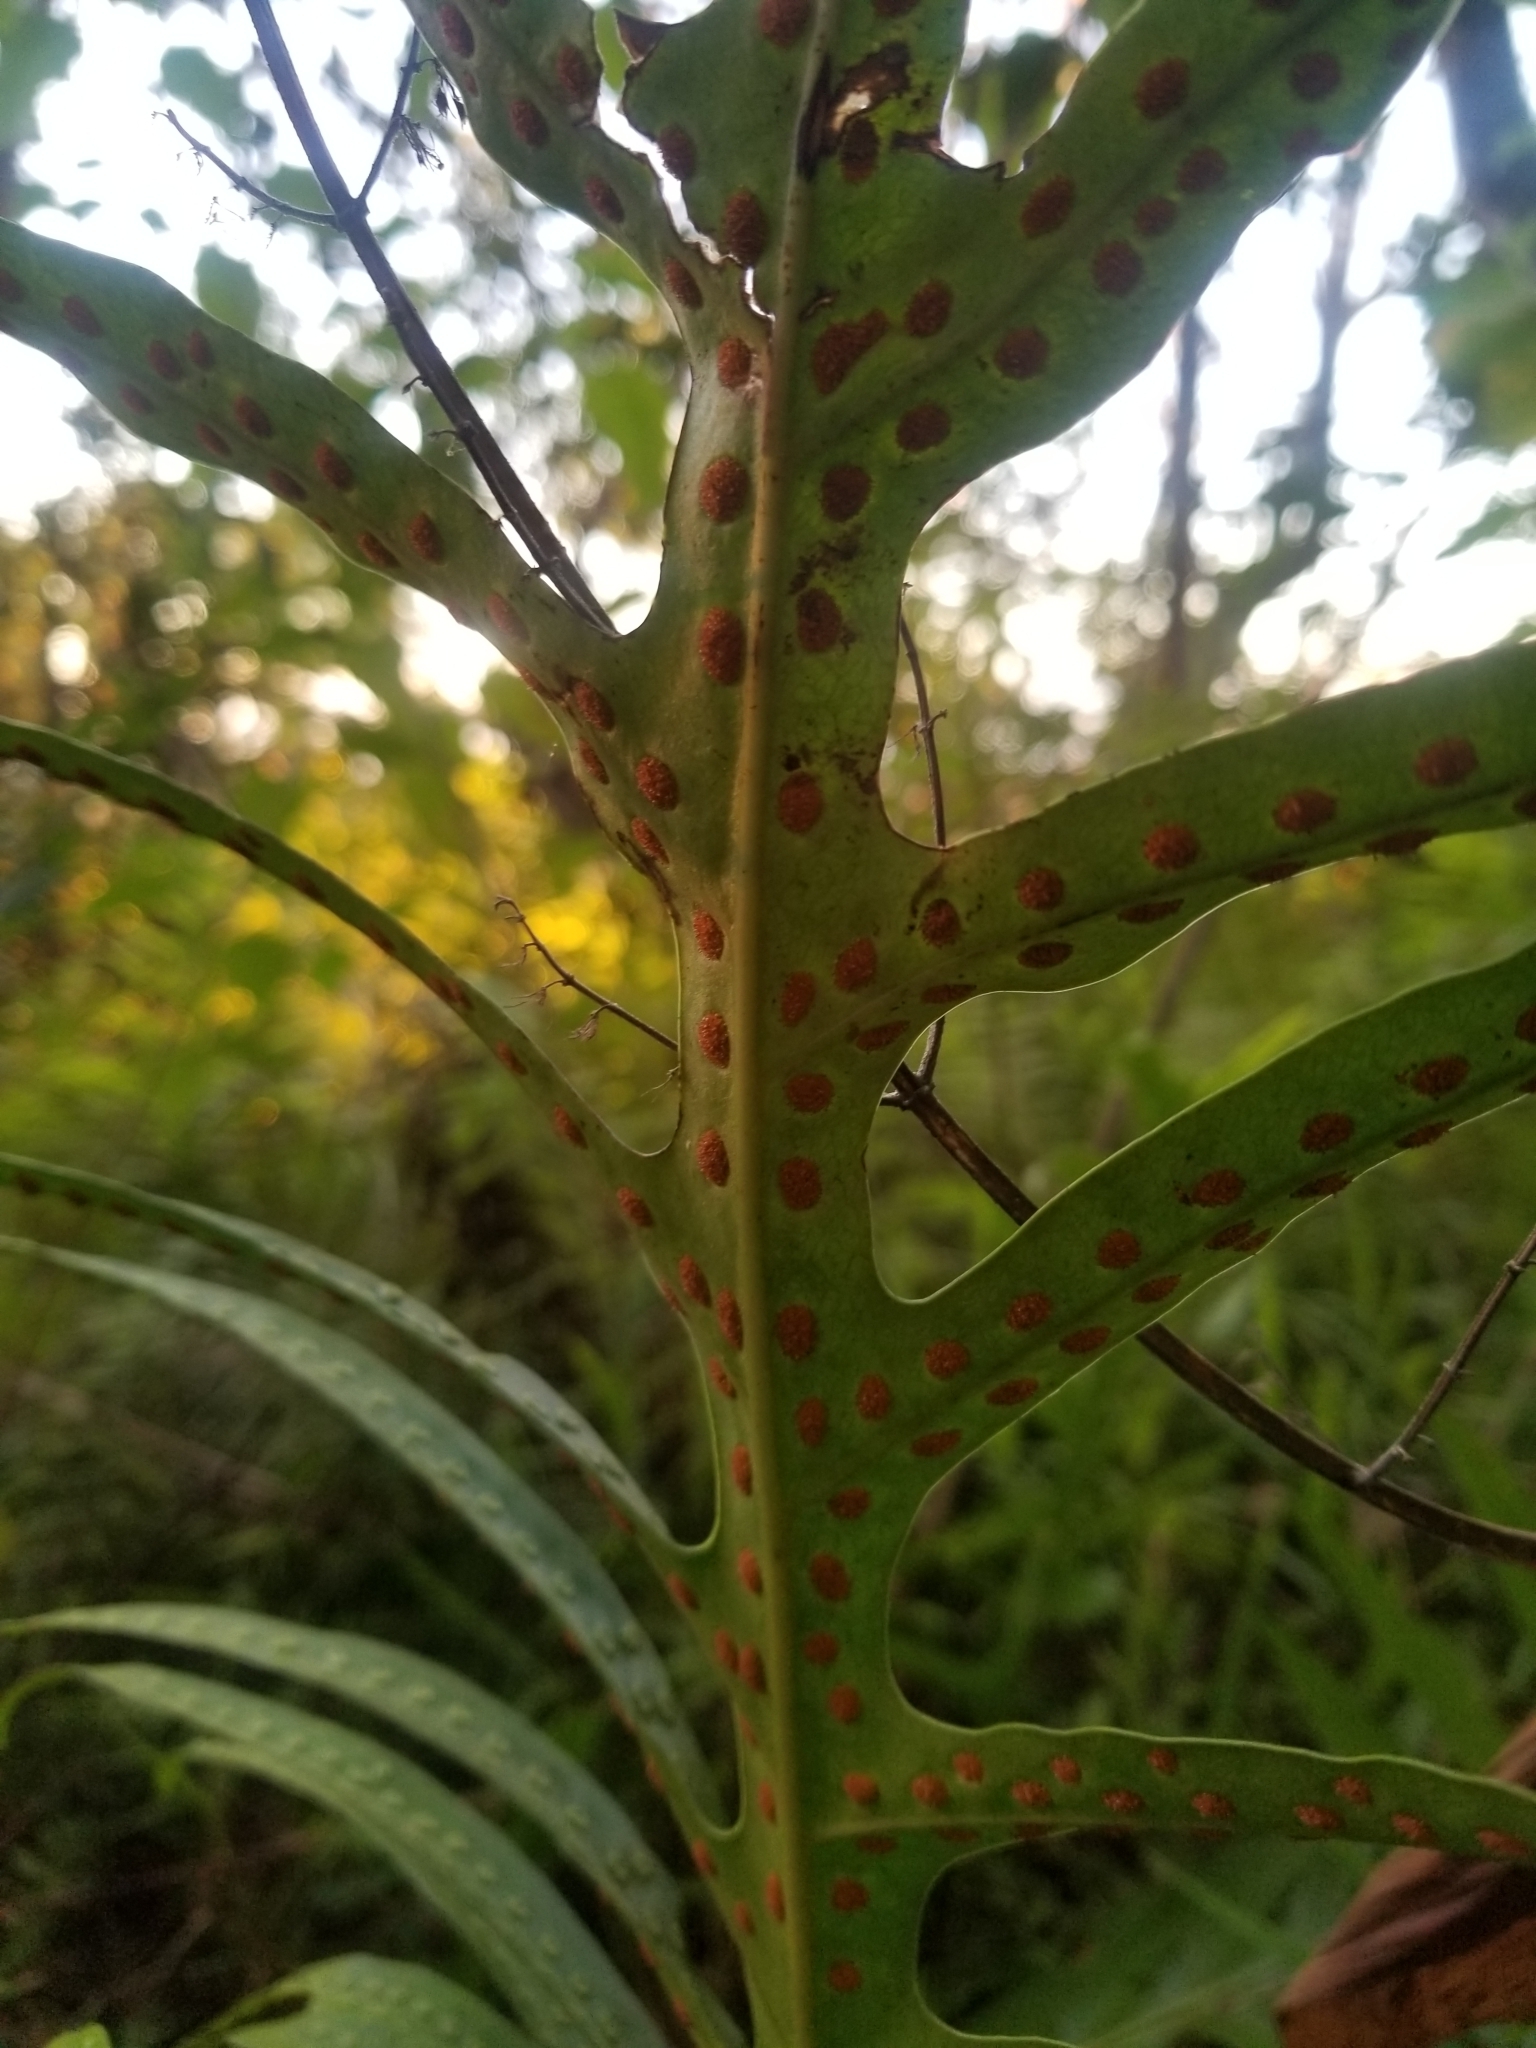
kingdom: Plantae
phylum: Tracheophyta
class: Polypodiopsida
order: Polypodiales
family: Polypodiaceae
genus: Microsorum
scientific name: Microsorum grossum
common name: Musk fern
